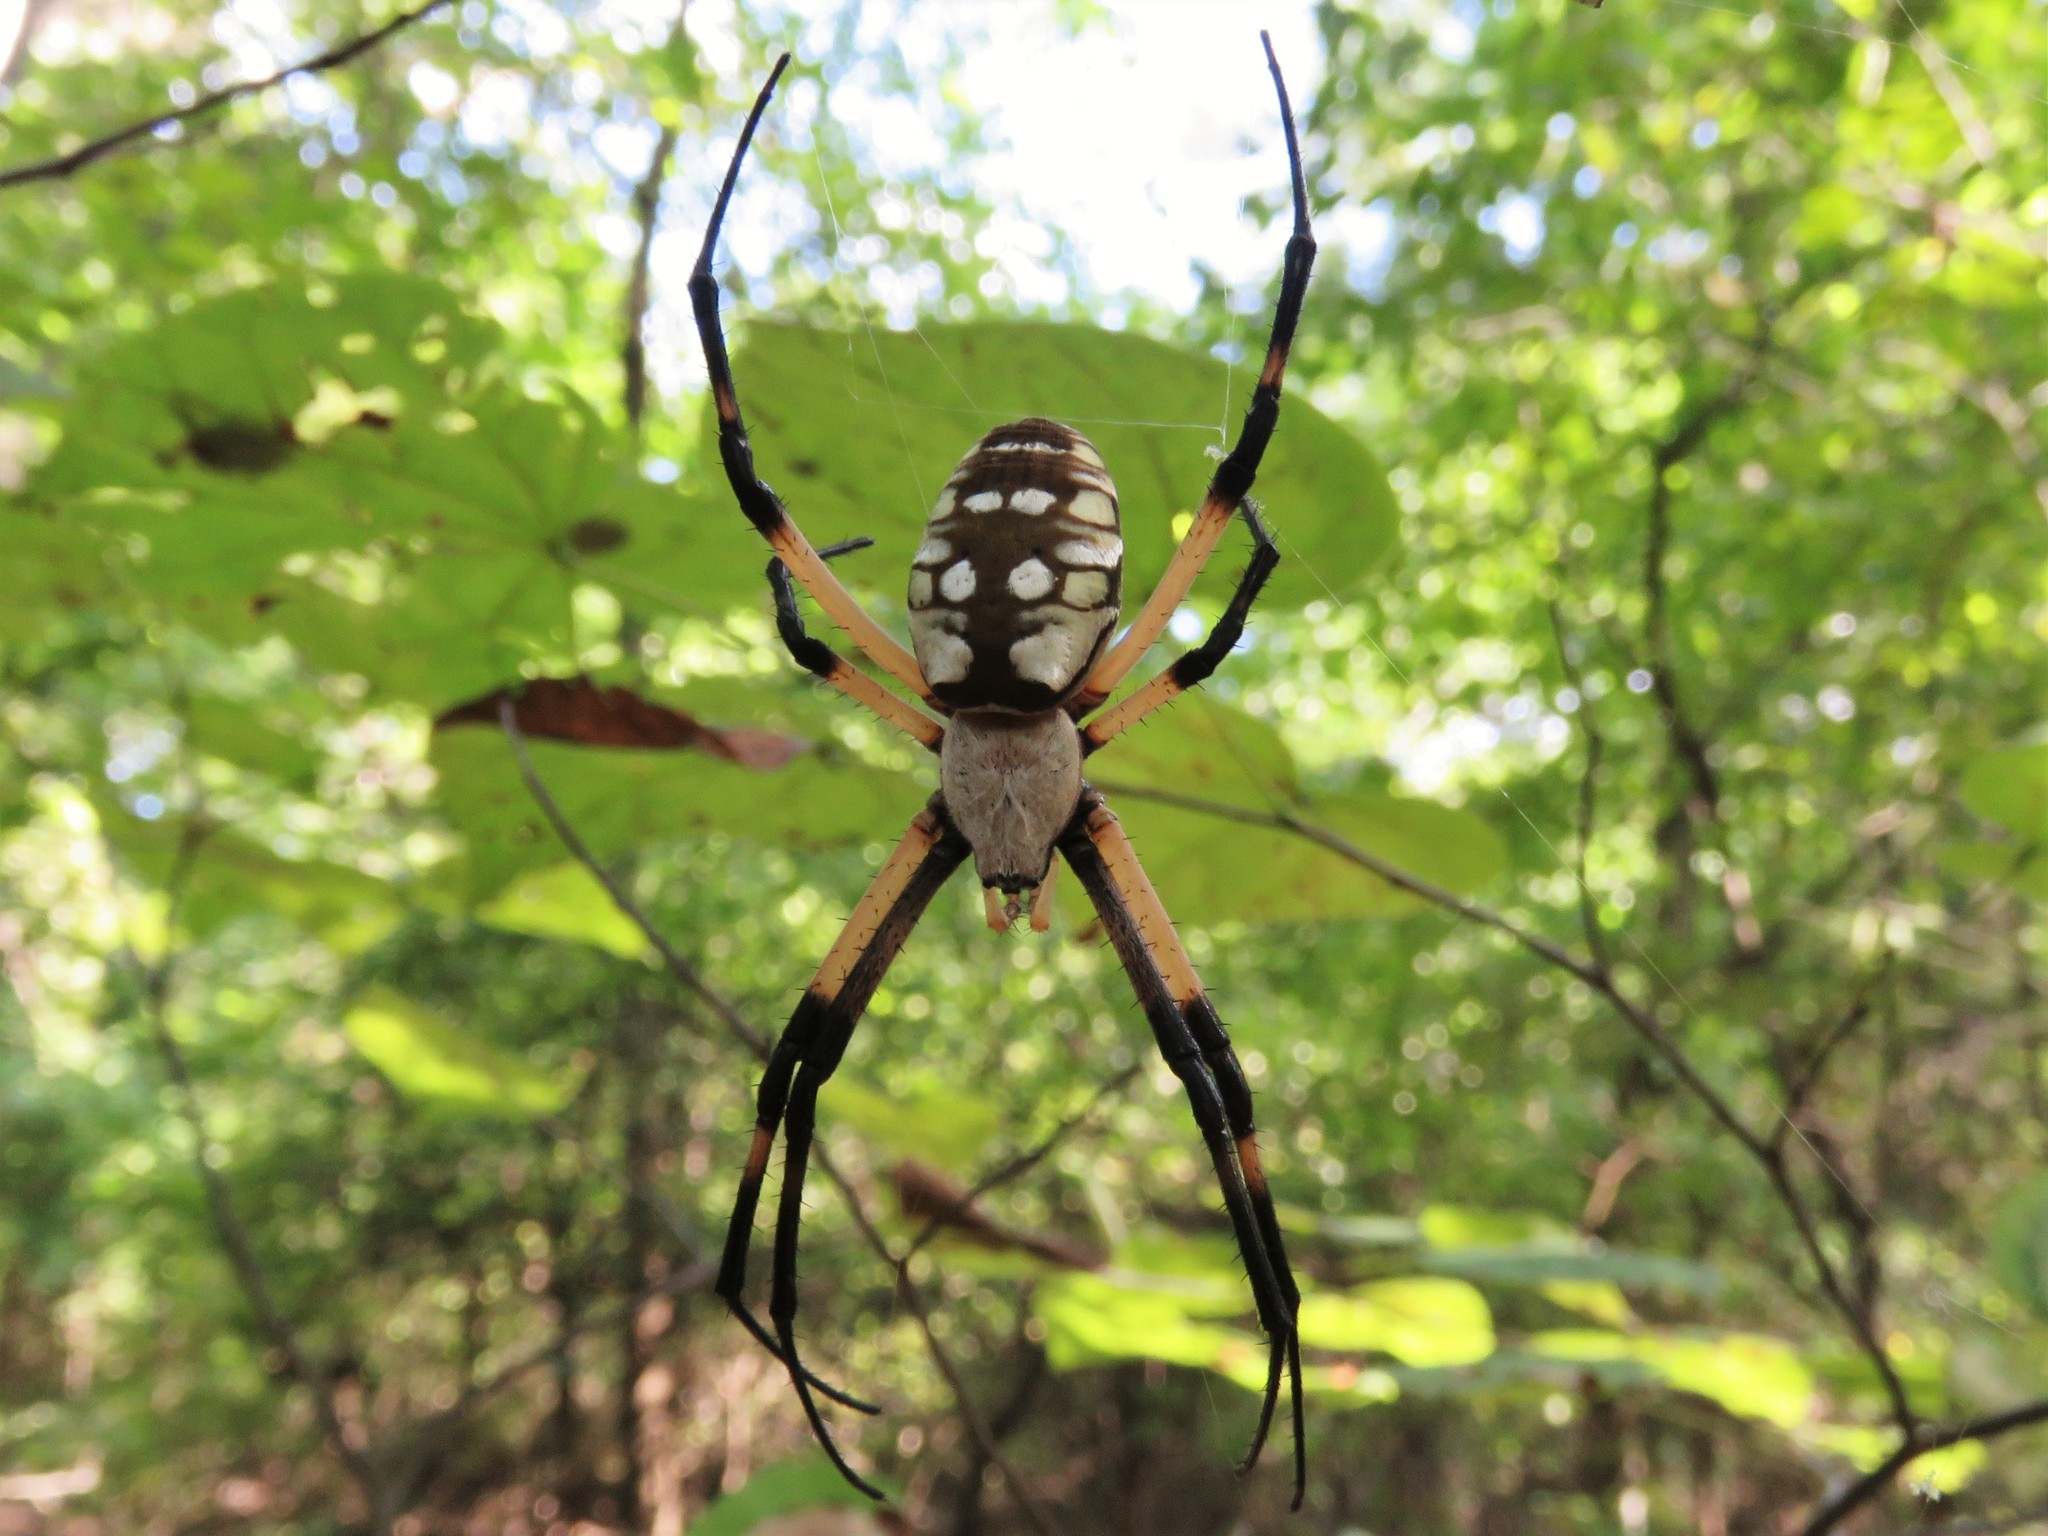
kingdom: Animalia
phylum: Arthropoda
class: Arachnida
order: Araneae
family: Araneidae
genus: Argiope
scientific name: Argiope aurantia
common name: Orb weavers
